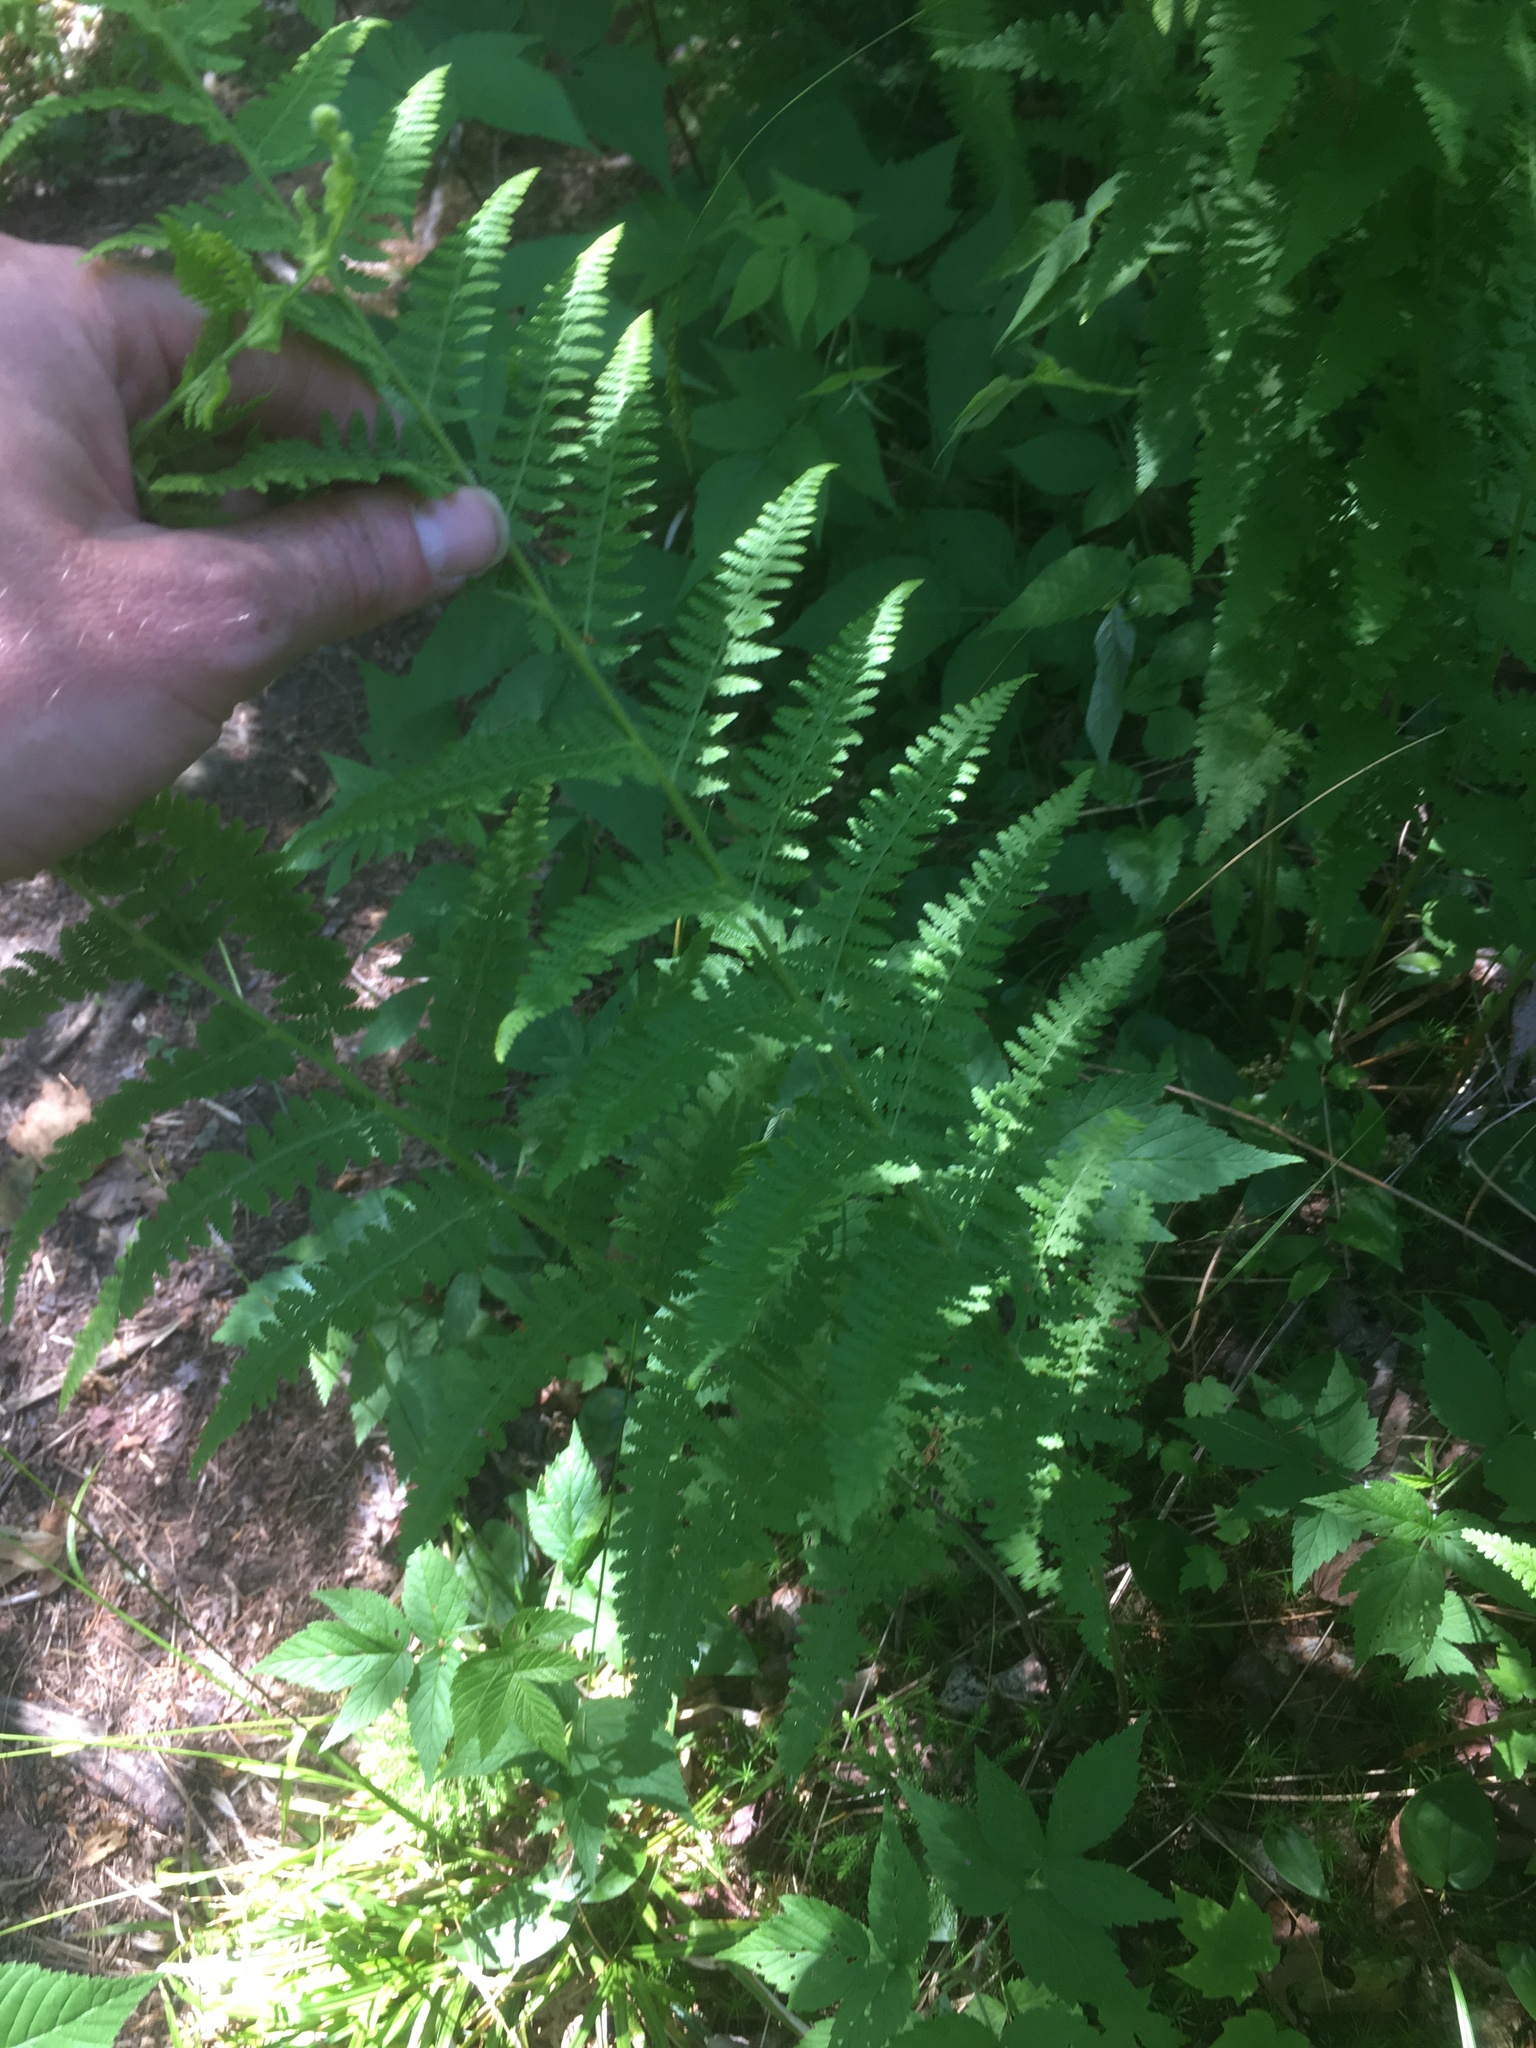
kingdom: Plantae
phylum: Tracheophyta
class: Polypodiopsida
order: Polypodiales
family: Dennstaedtiaceae
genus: Sitobolium
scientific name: Sitobolium punctilobum
